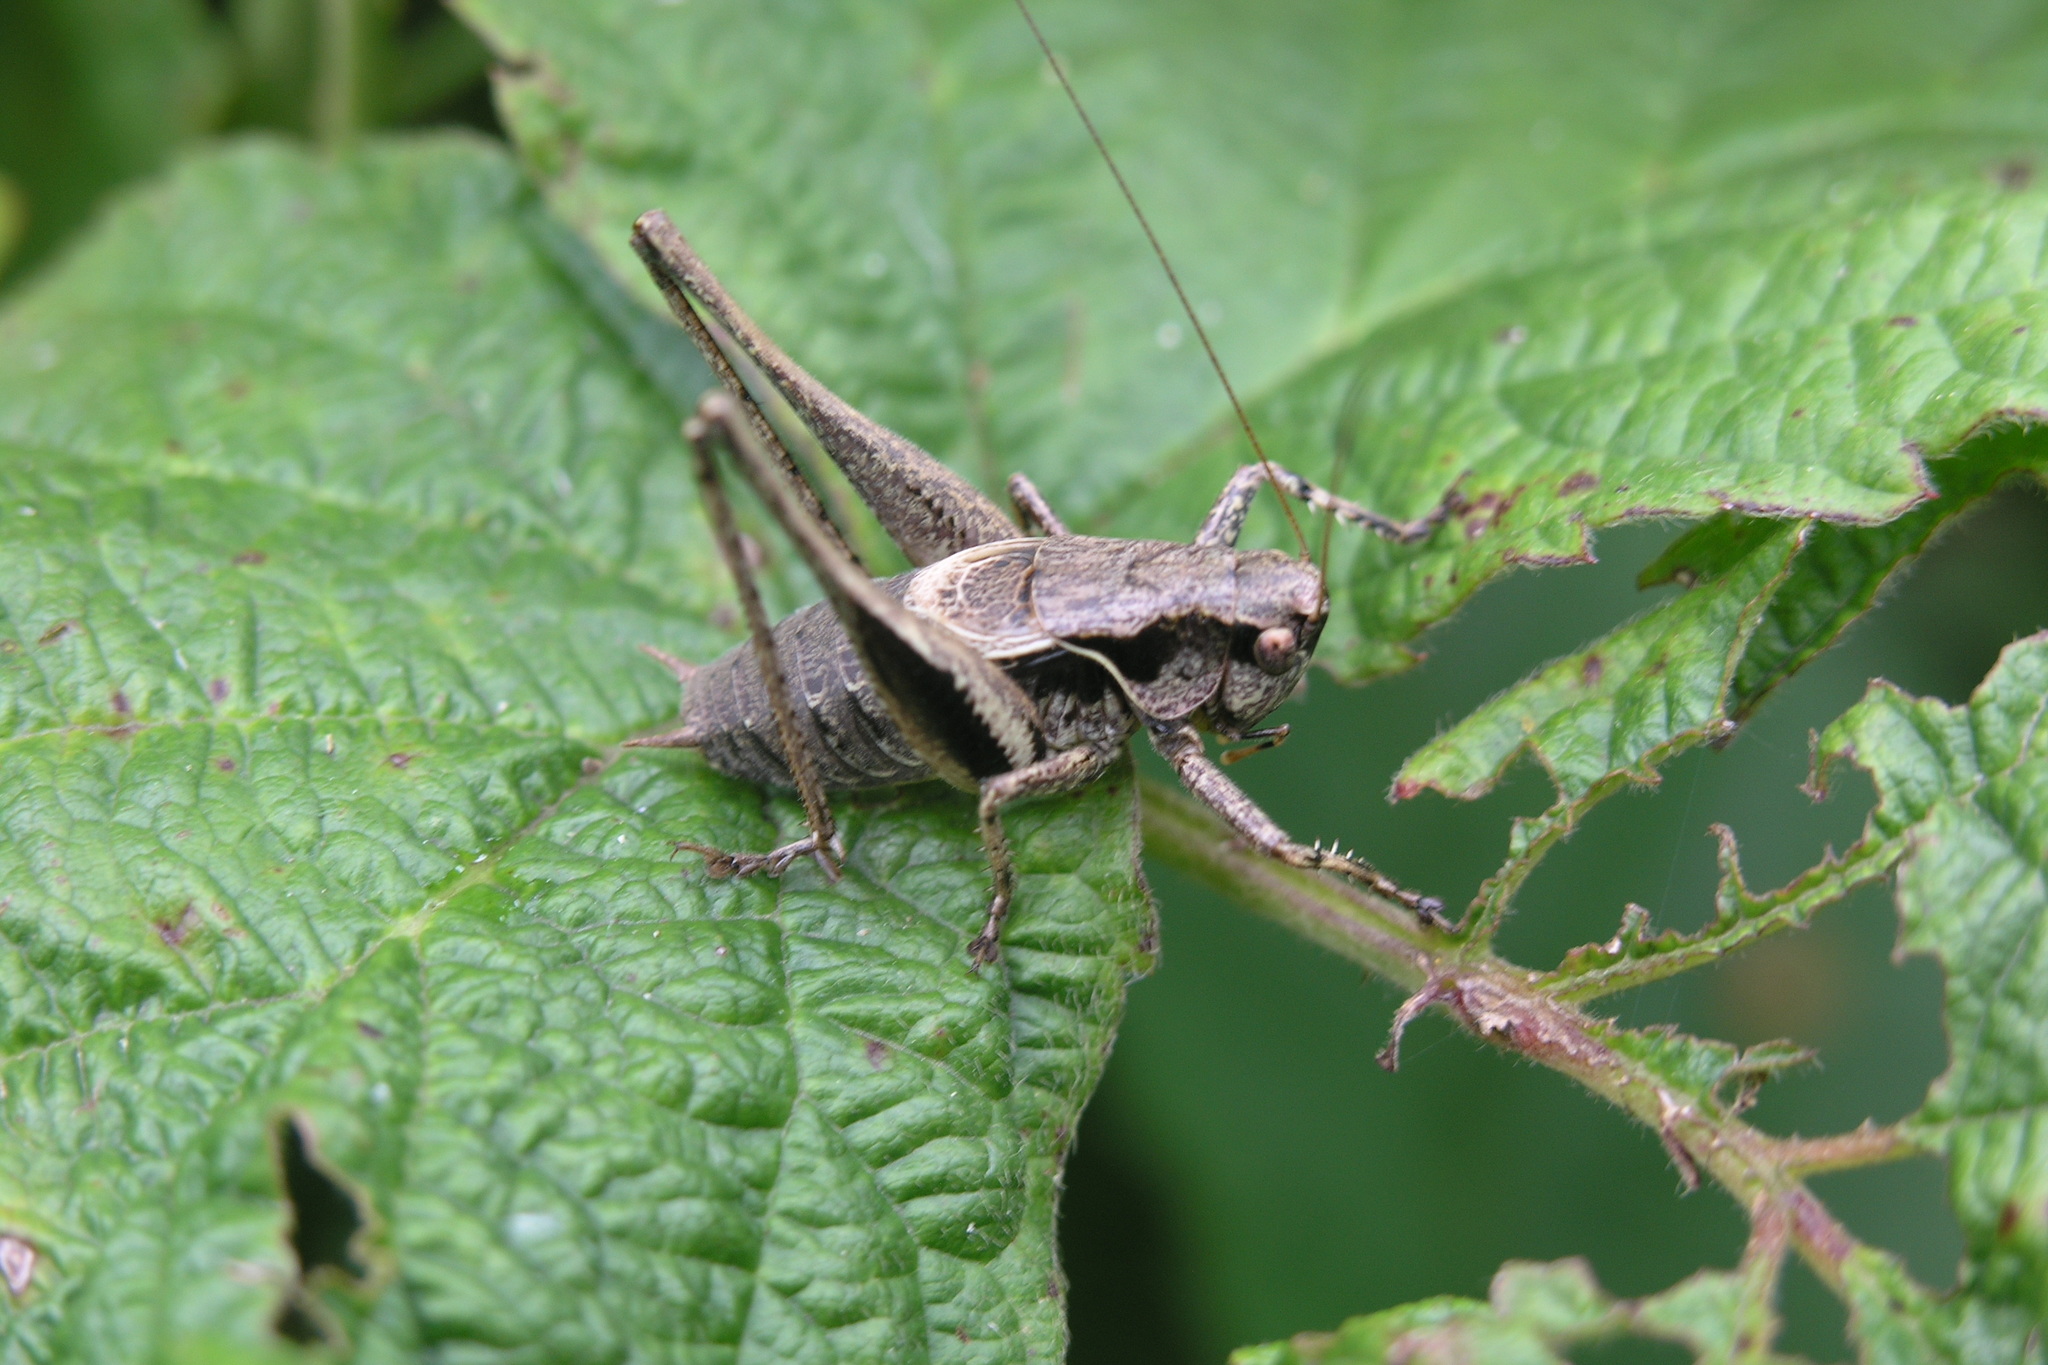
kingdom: Animalia
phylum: Arthropoda
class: Insecta
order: Orthoptera
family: Tettigoniidae
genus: Pholidoptera
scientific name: Pholidoptera griseoaptera
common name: Dark bush-cricket
